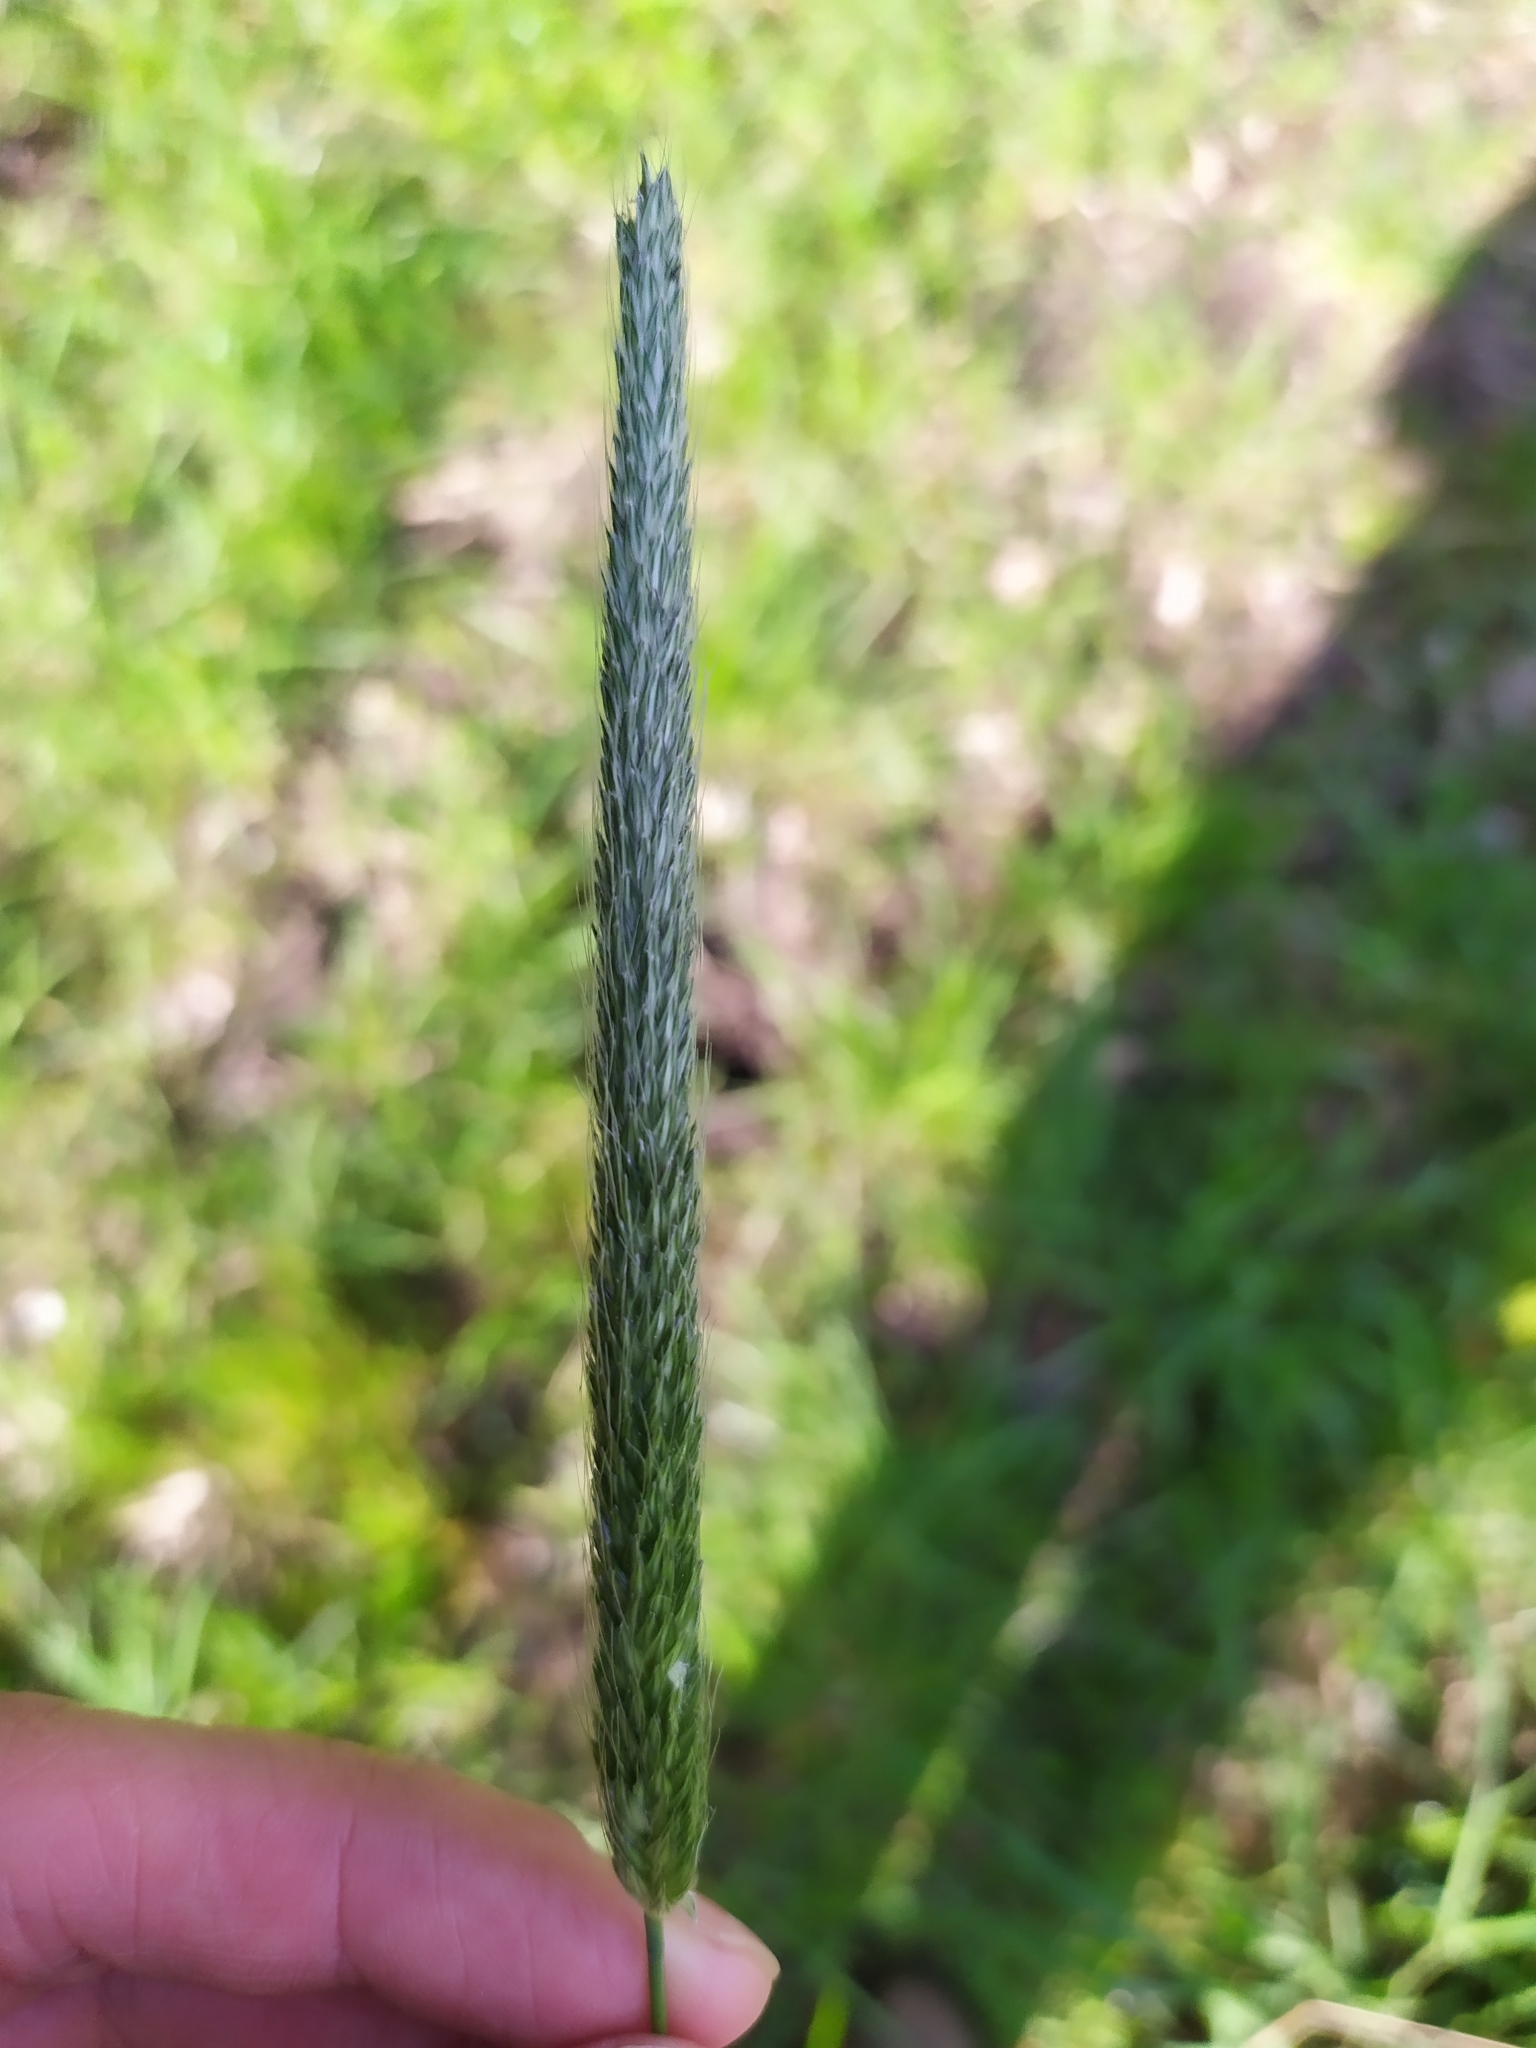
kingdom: Plantae
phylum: Tracheophyta
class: Liliopsida
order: Poales
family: Poaceae
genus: Alopecurus
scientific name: Alopecurus pratensis
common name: Meadow foxtail
